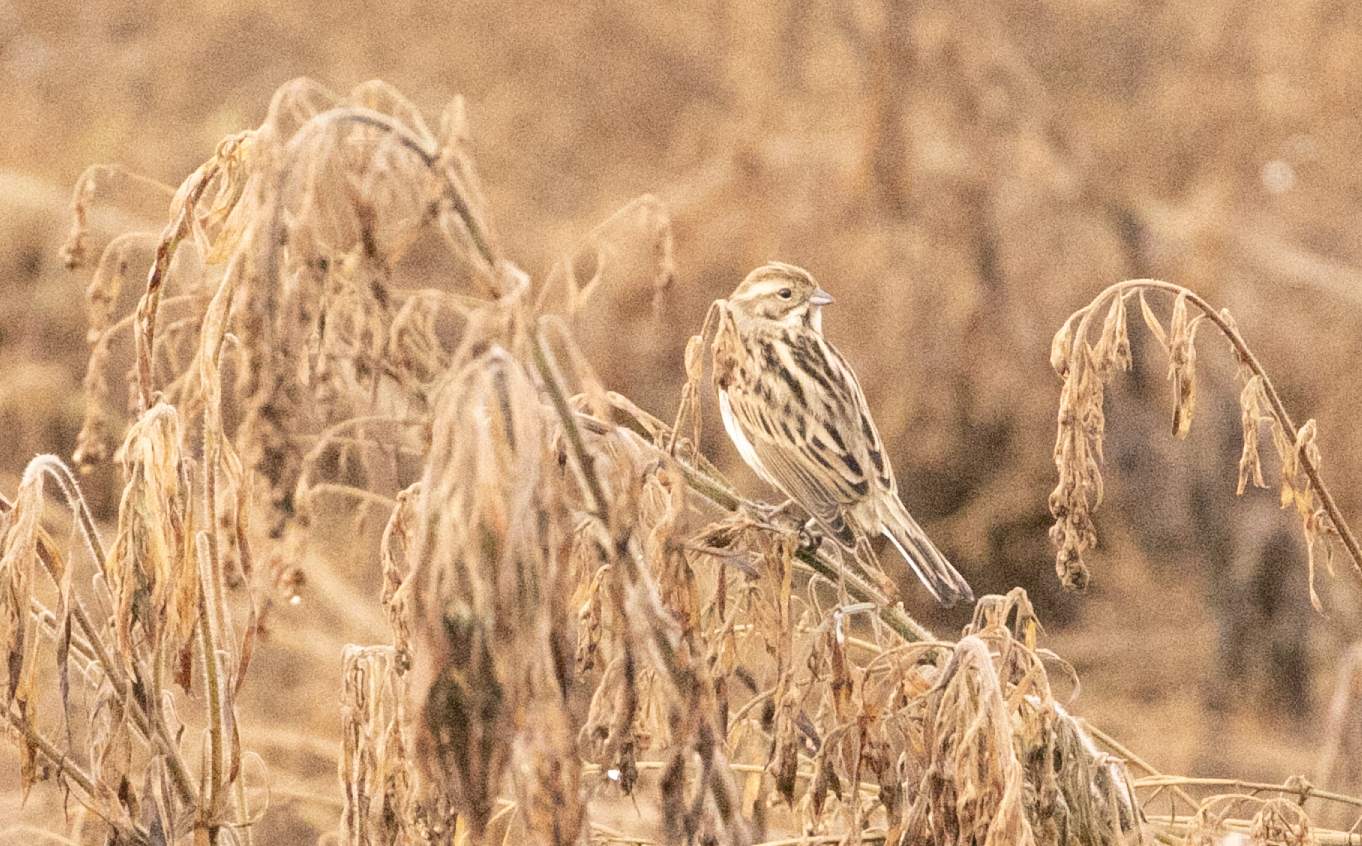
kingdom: Animalia
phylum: Chordata
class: Aves
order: Passeriformes
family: Emberizidae
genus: Emberiza
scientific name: Emberiza schoeniclus
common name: Reed bunting
